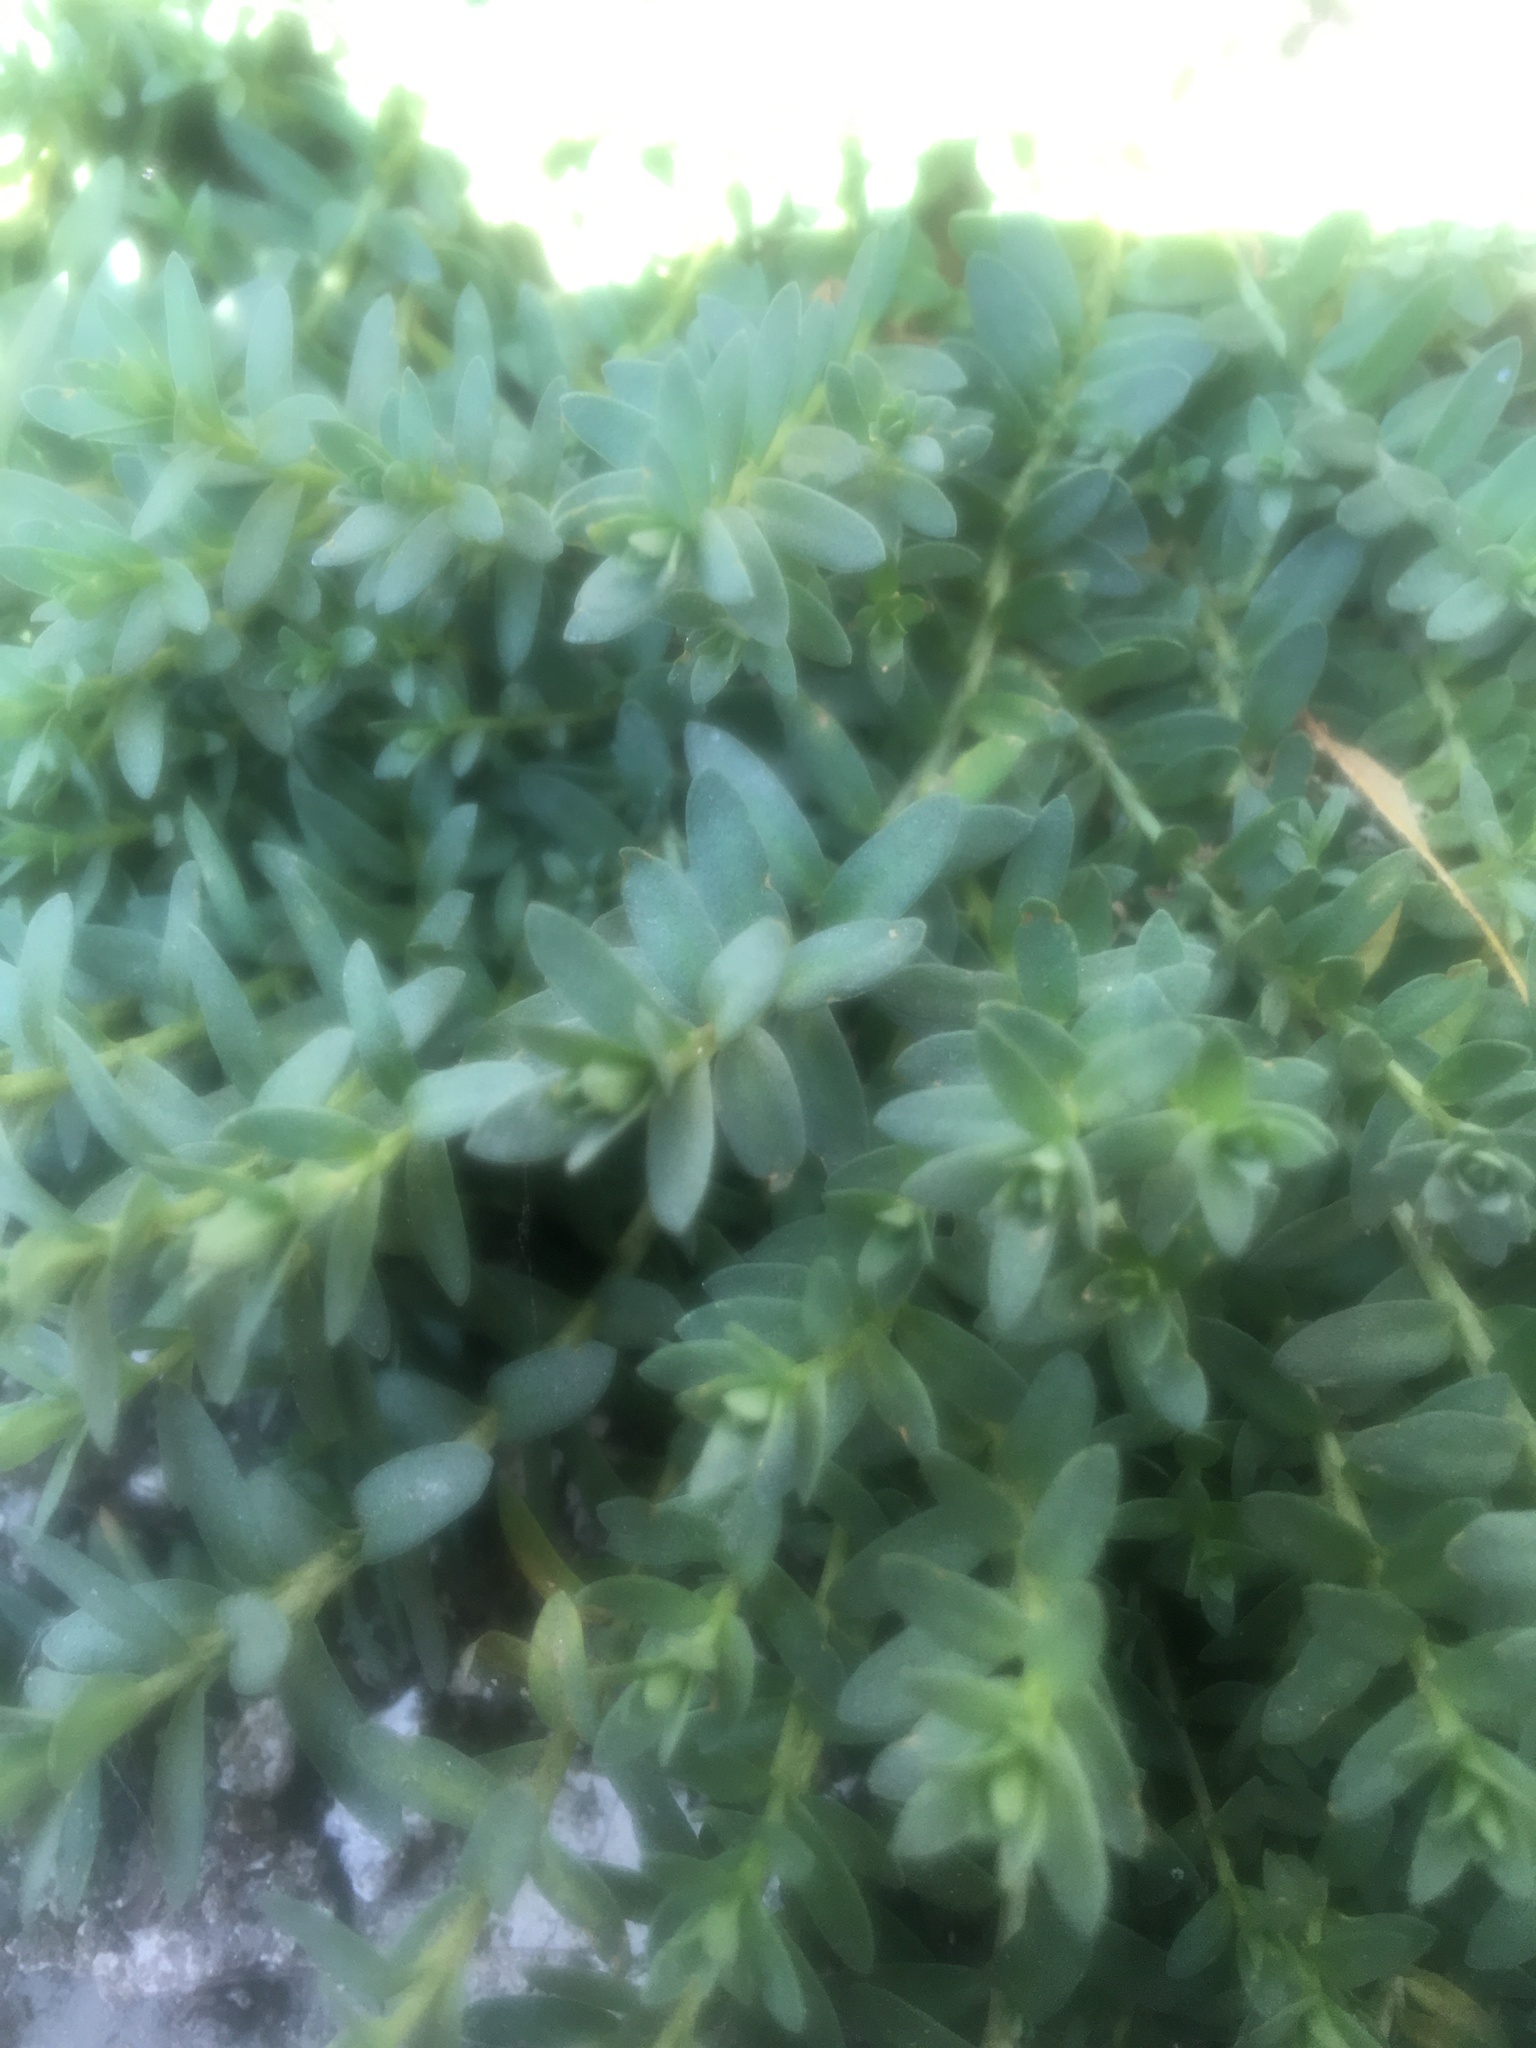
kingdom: Plantae
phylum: Tracheophyta
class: Magnoliopsida
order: Ericales
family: Primulaceae
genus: Lysimachia
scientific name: Lysimachia maritima
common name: Sea milkwort
